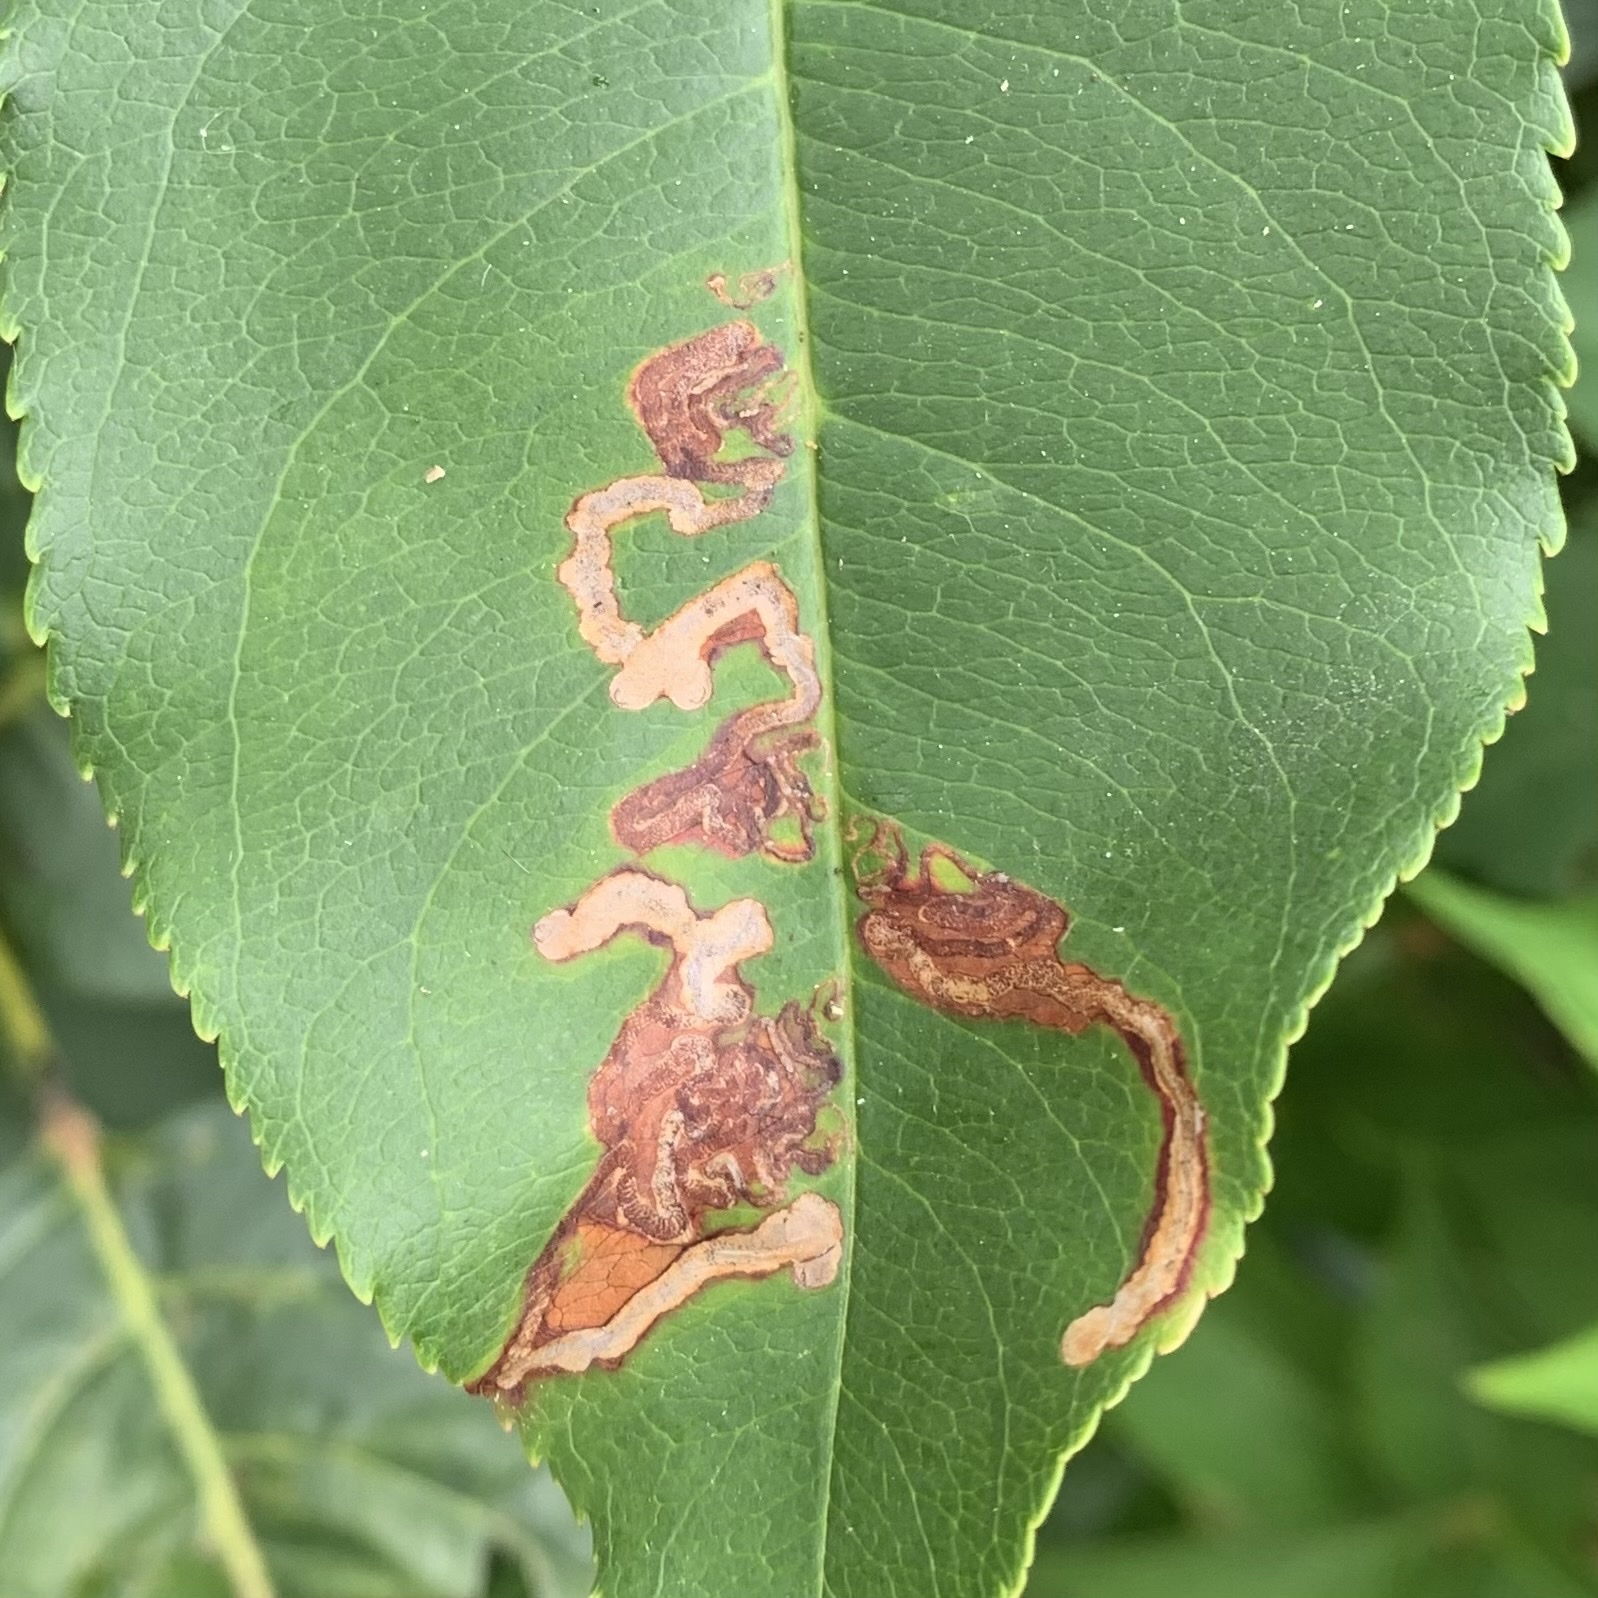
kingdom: Animalia
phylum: Arthropoda
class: Insecta
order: Lepidoptera
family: Nepticulidae
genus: Stigmella
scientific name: Stigmella prunifoliella
